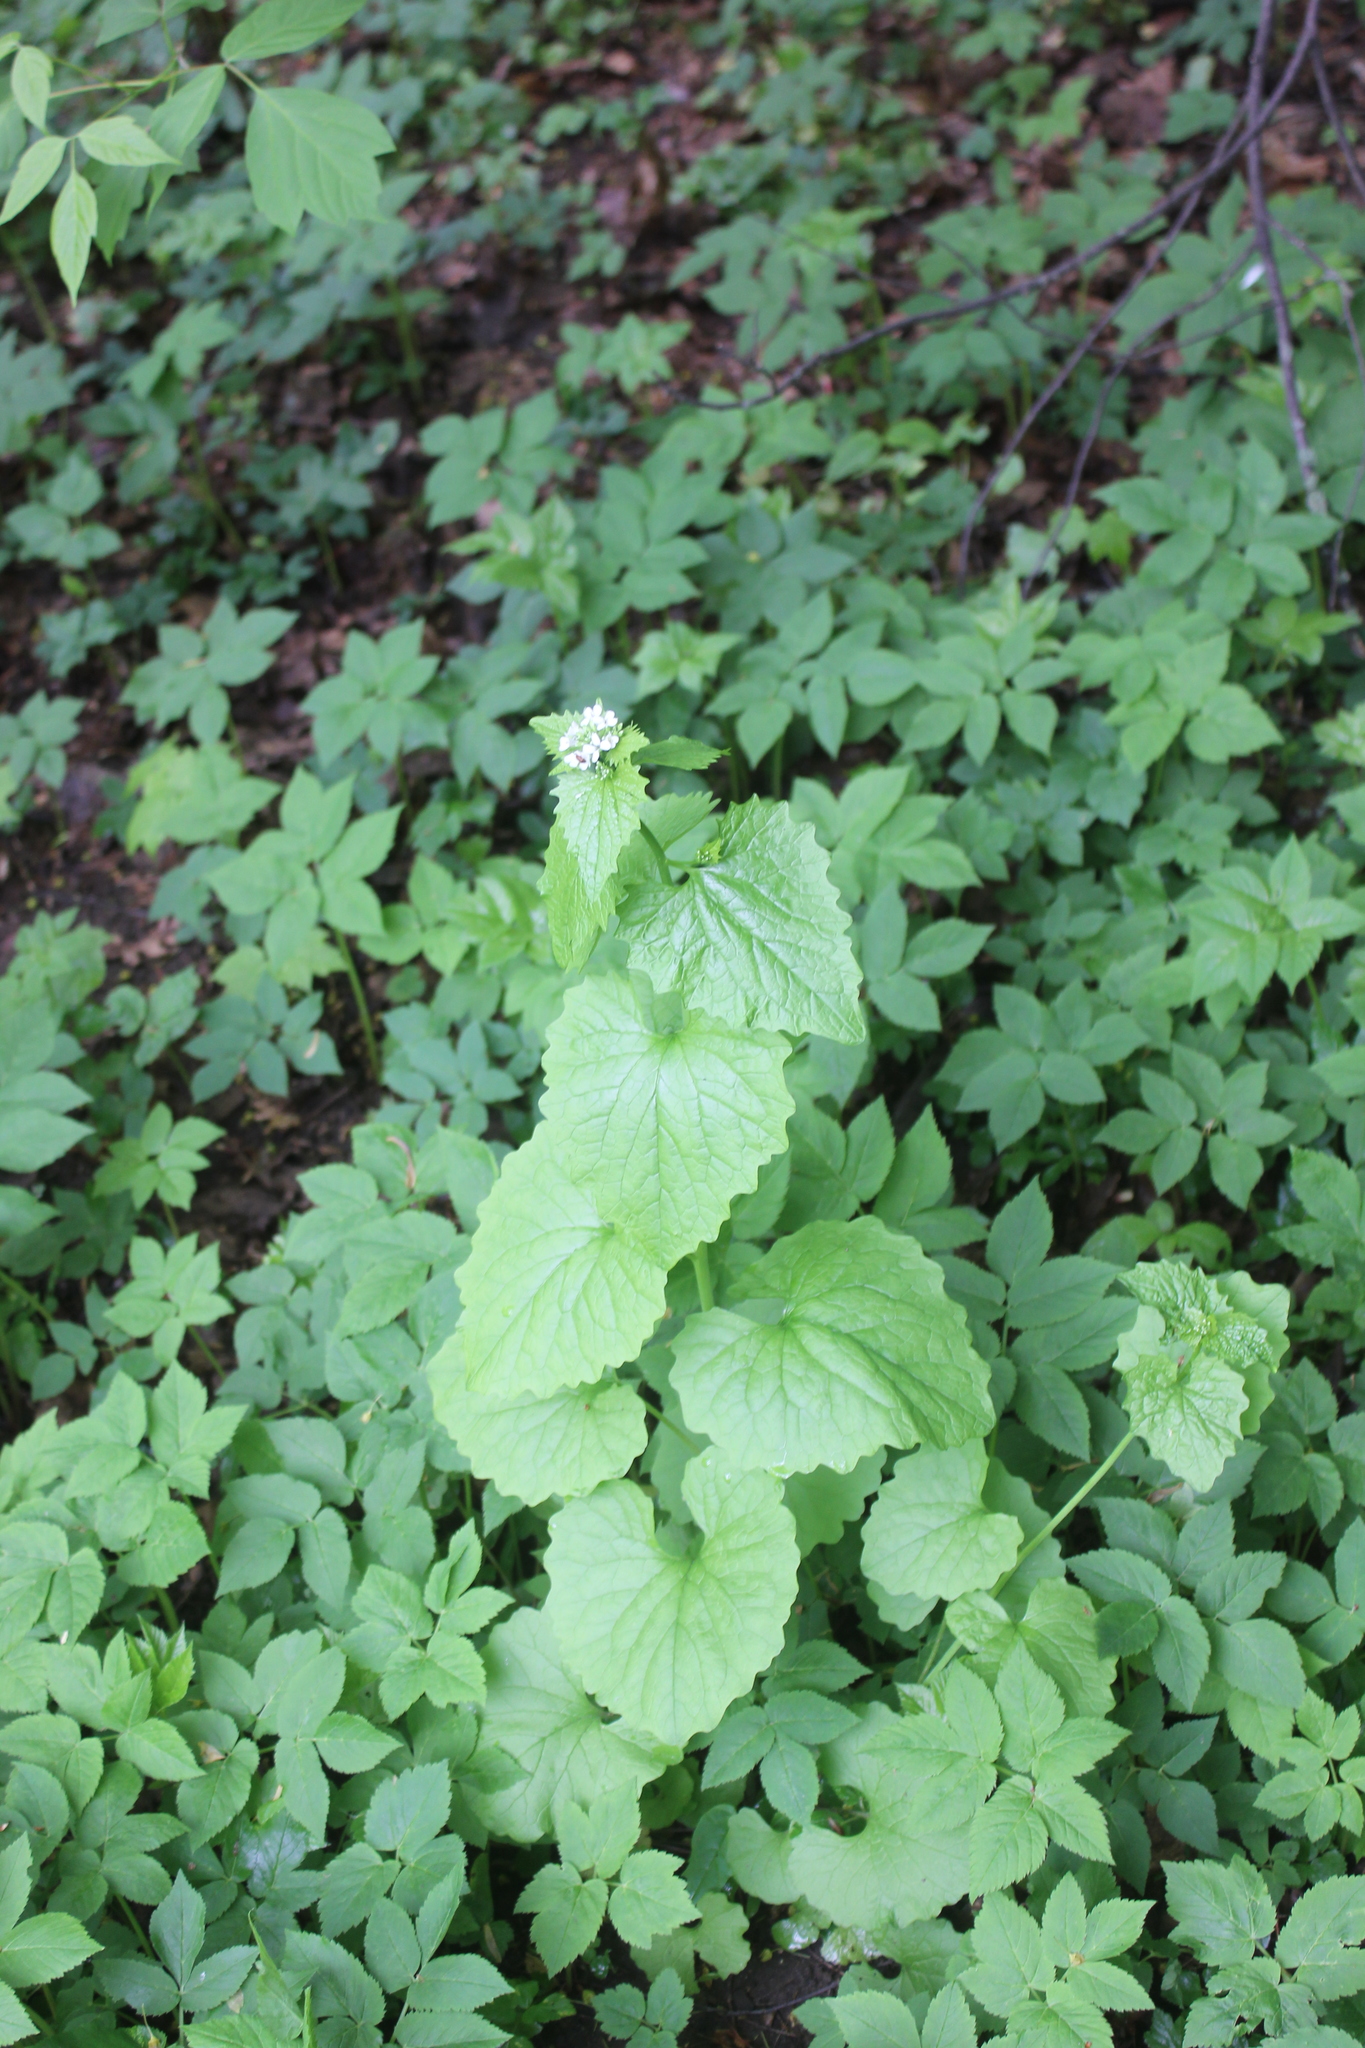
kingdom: Plantae
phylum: Tracheophyta
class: Magnoliopsida
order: Brassicales
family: Brassicaceae
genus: Alliaria
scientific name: Alliaria petiolata
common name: Garlic mustard
